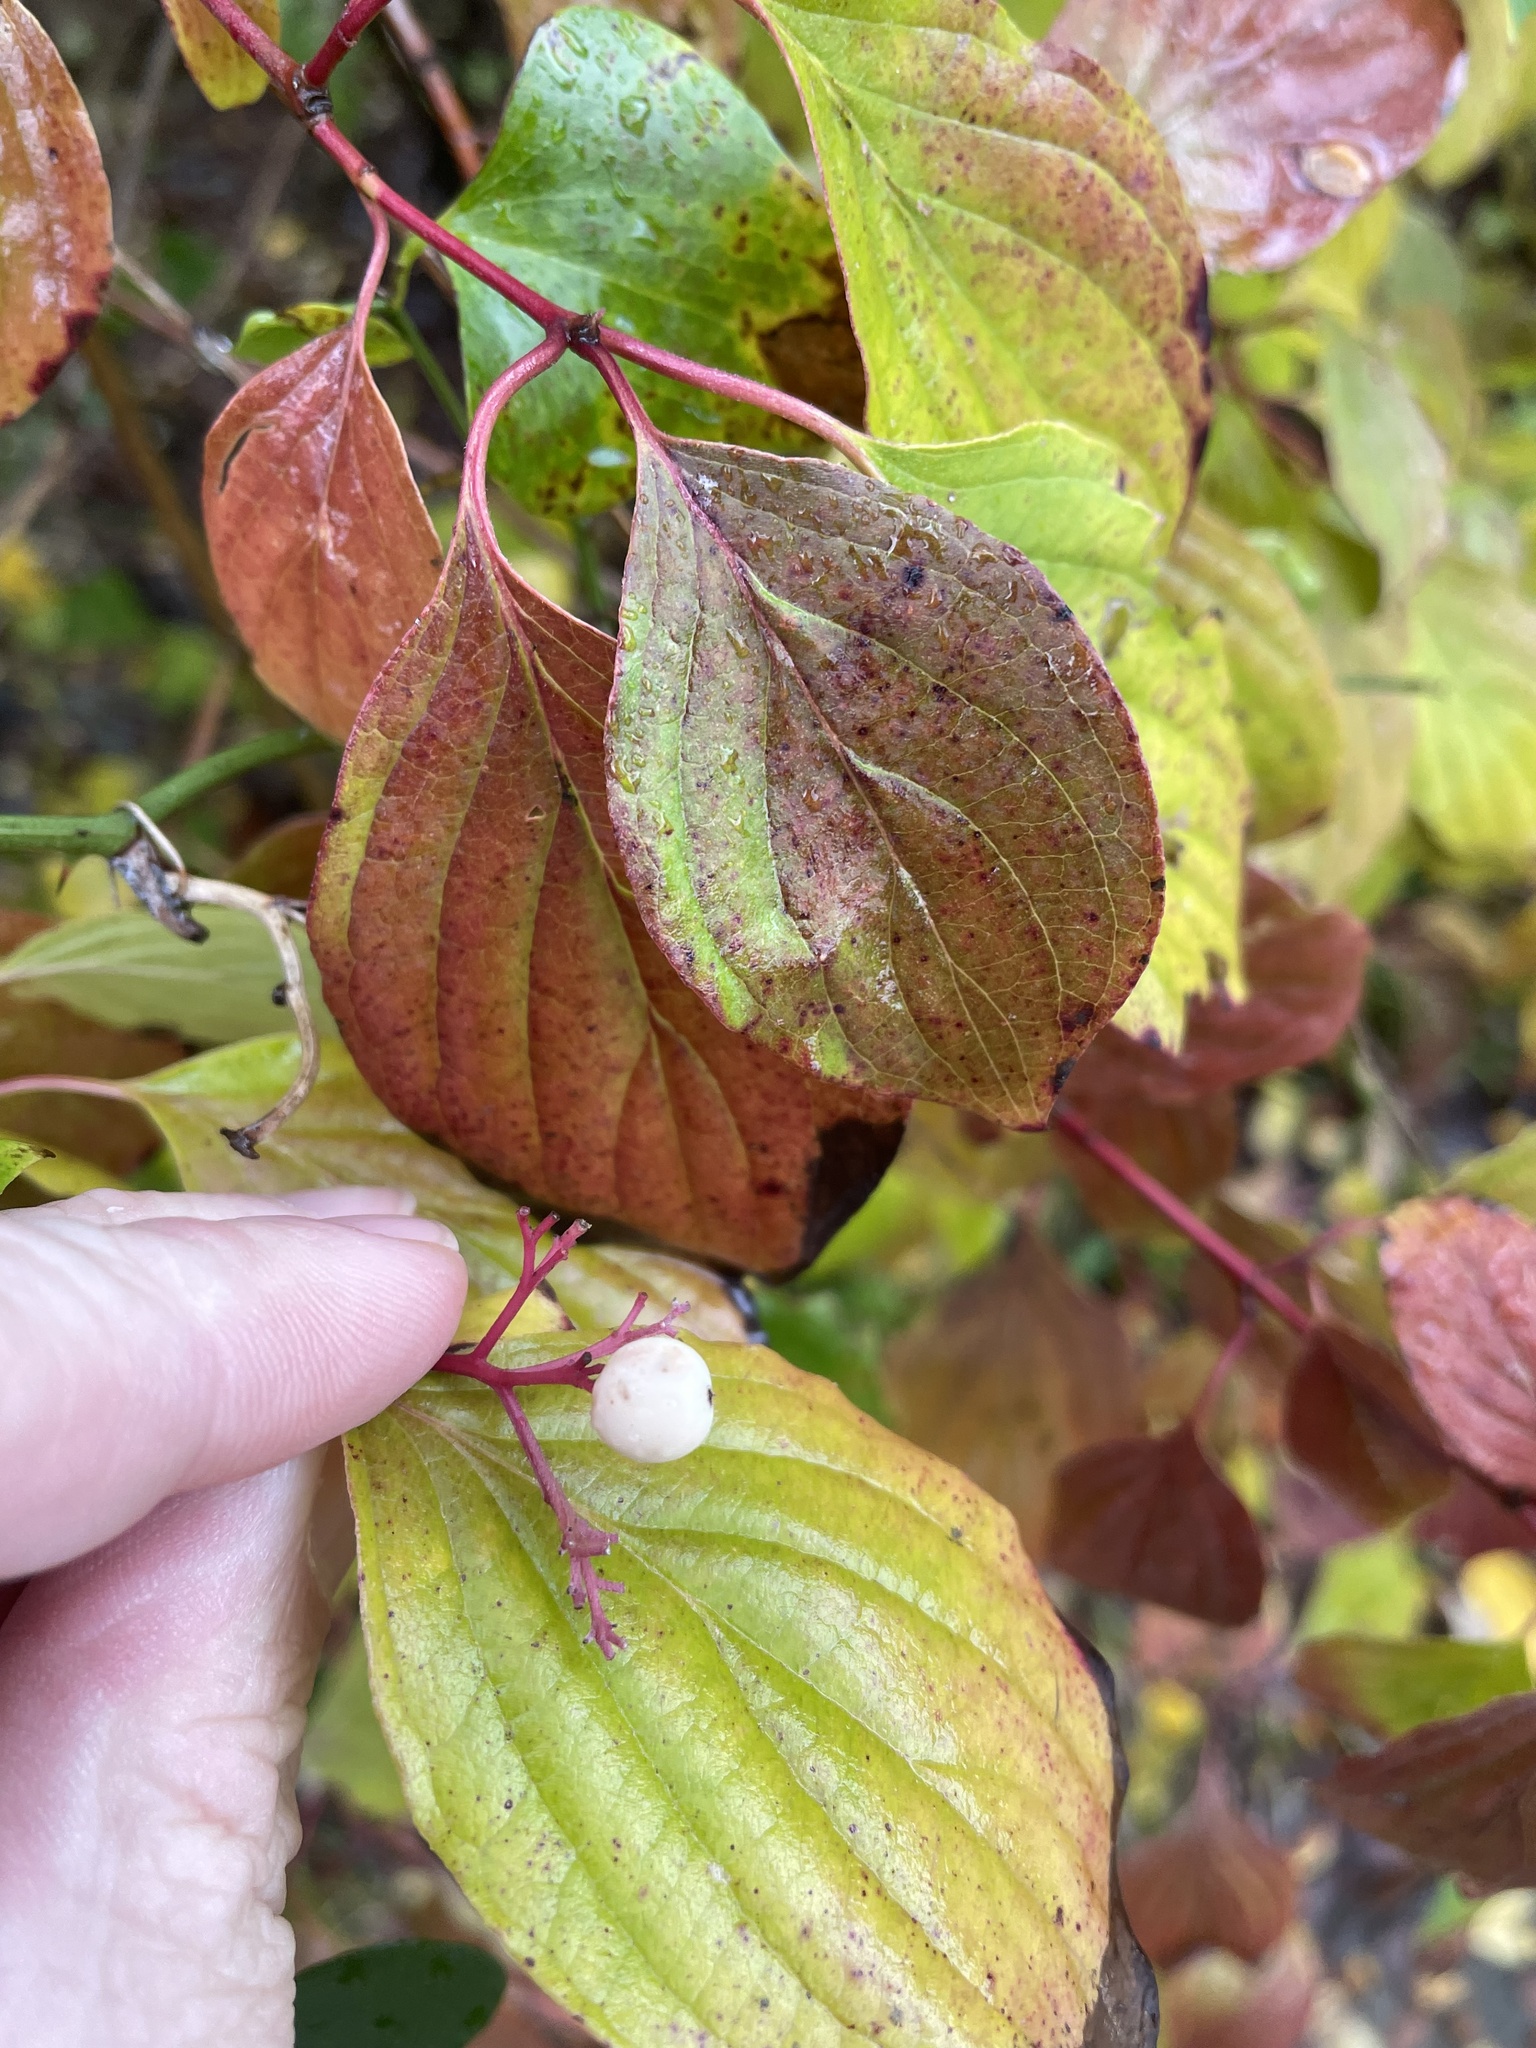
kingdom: Plantae
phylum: Tracheophyta
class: Magnoliopsida
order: Cornales
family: Cornaceae
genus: Cornus
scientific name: Cornus drummondii
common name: Rough-leaf dogwood
